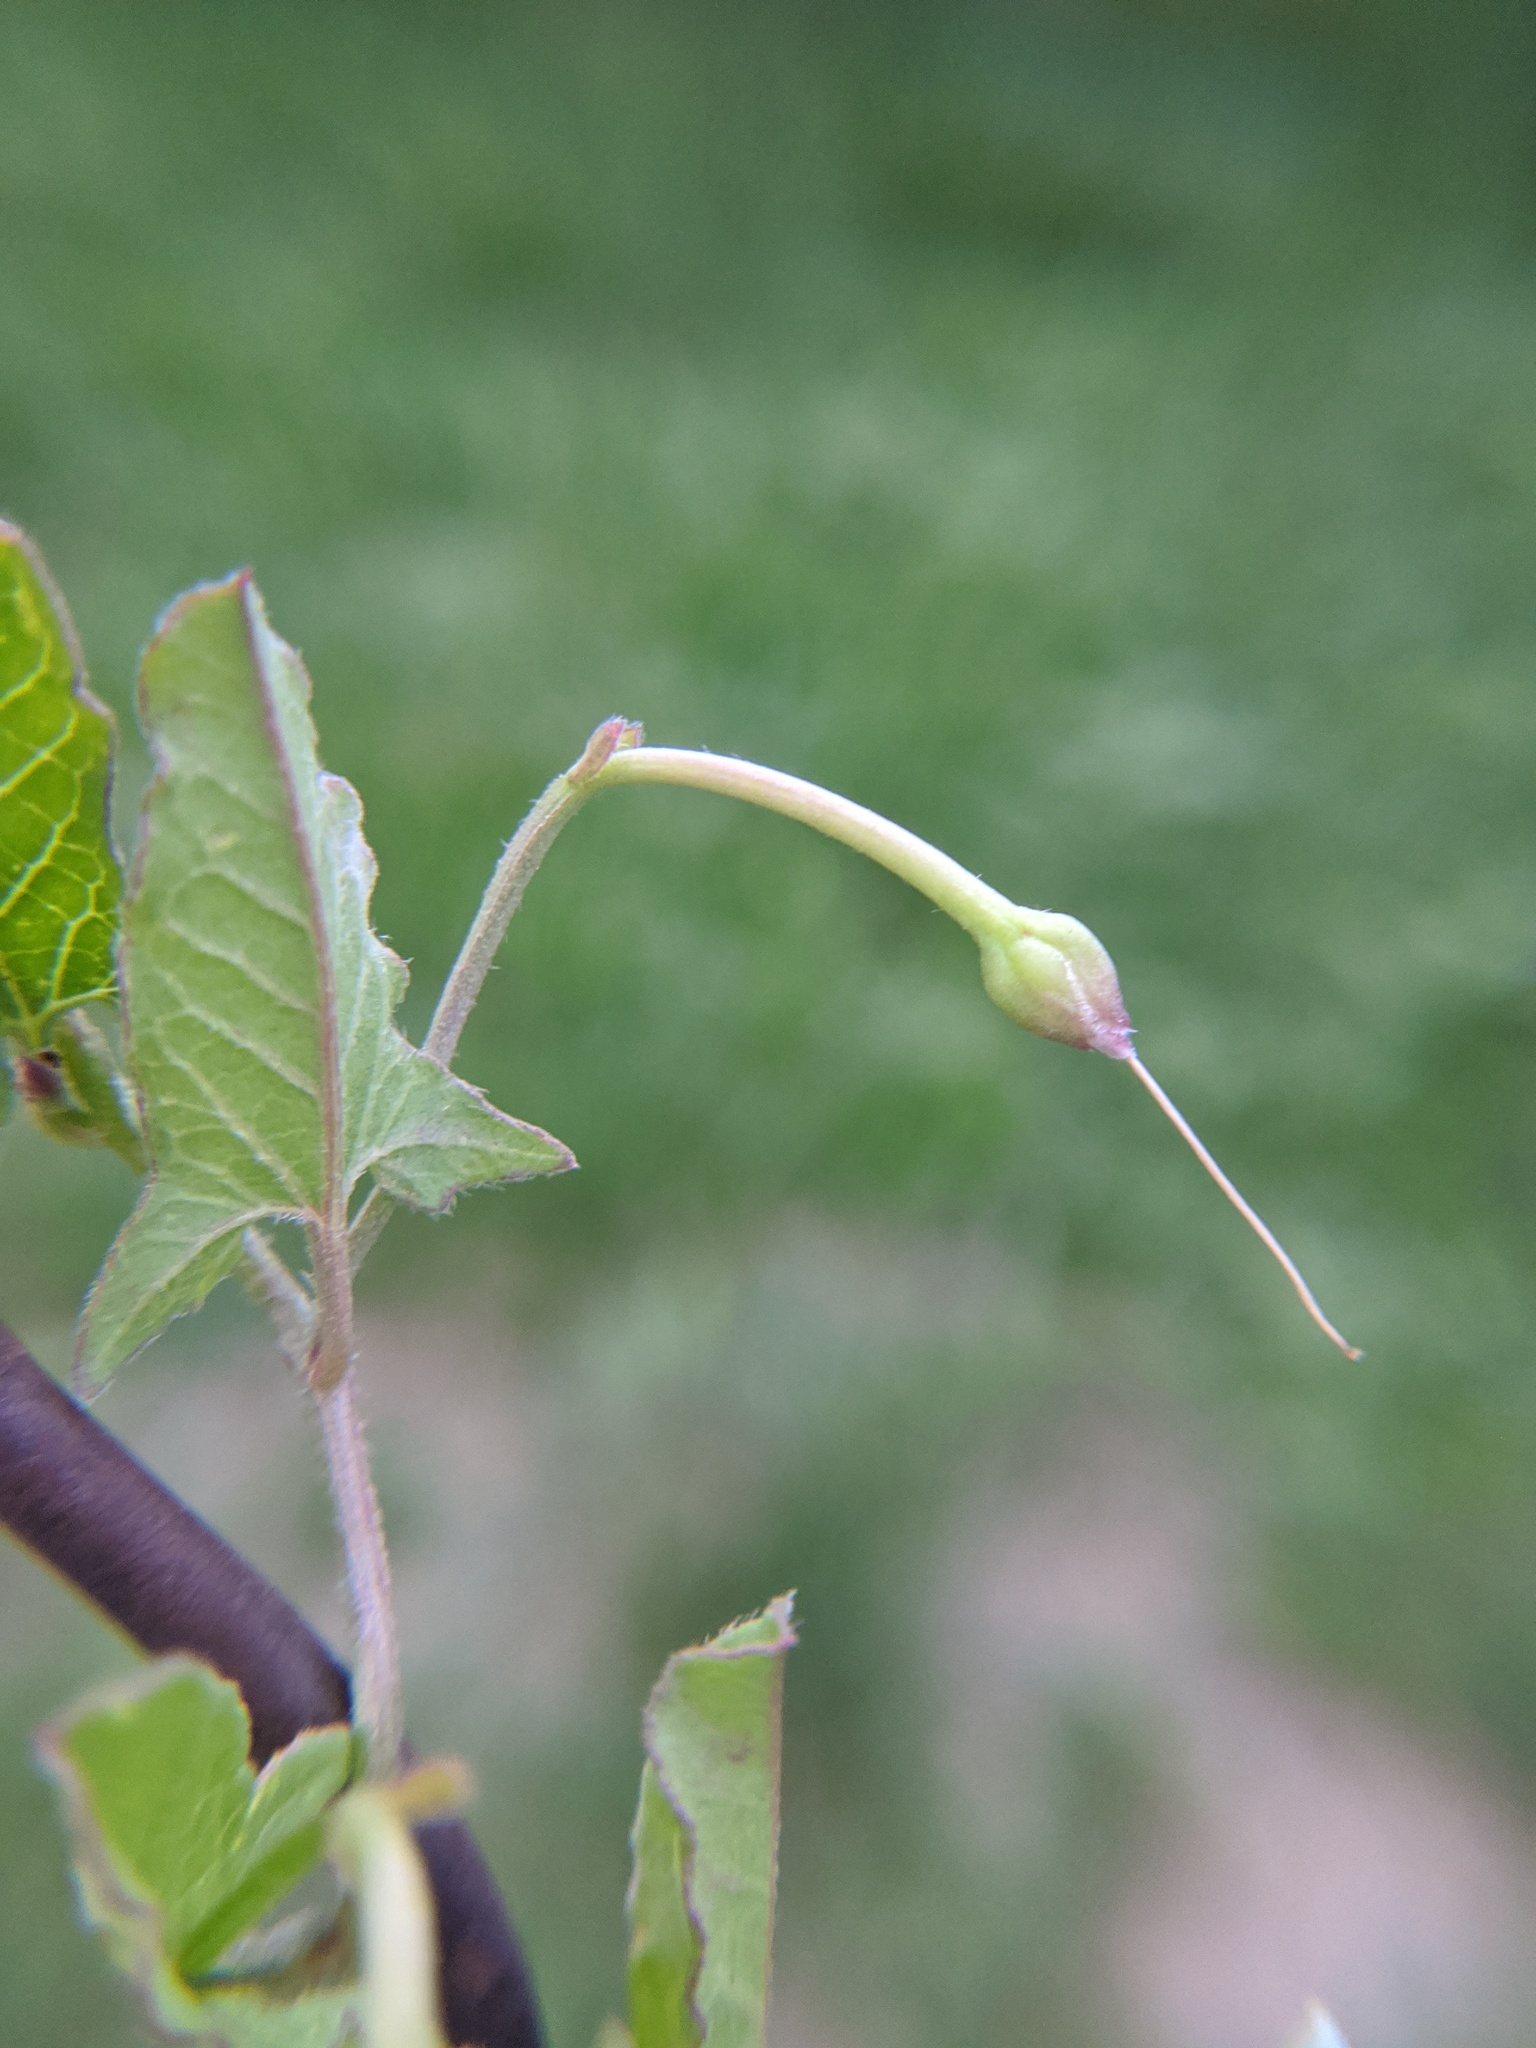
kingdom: Plantae
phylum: Tracheophyta
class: Magnoliopsida
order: Solanales
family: Convolvulaceae
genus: Convolvulus
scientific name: Convolvulus arvensis
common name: Field bindweed
